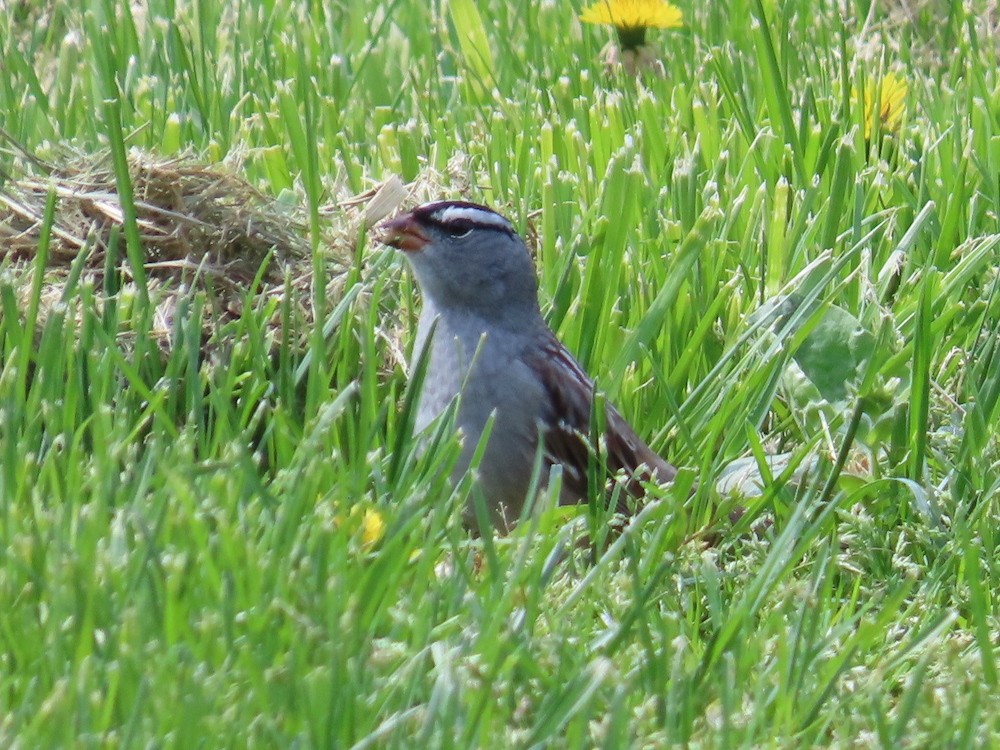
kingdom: Animalia
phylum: Chordata
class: Aves
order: Passeriformes
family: Passerellidae
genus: Zonotrichia
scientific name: Zonotrichia leucophrys
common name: White-crowned sparrow
